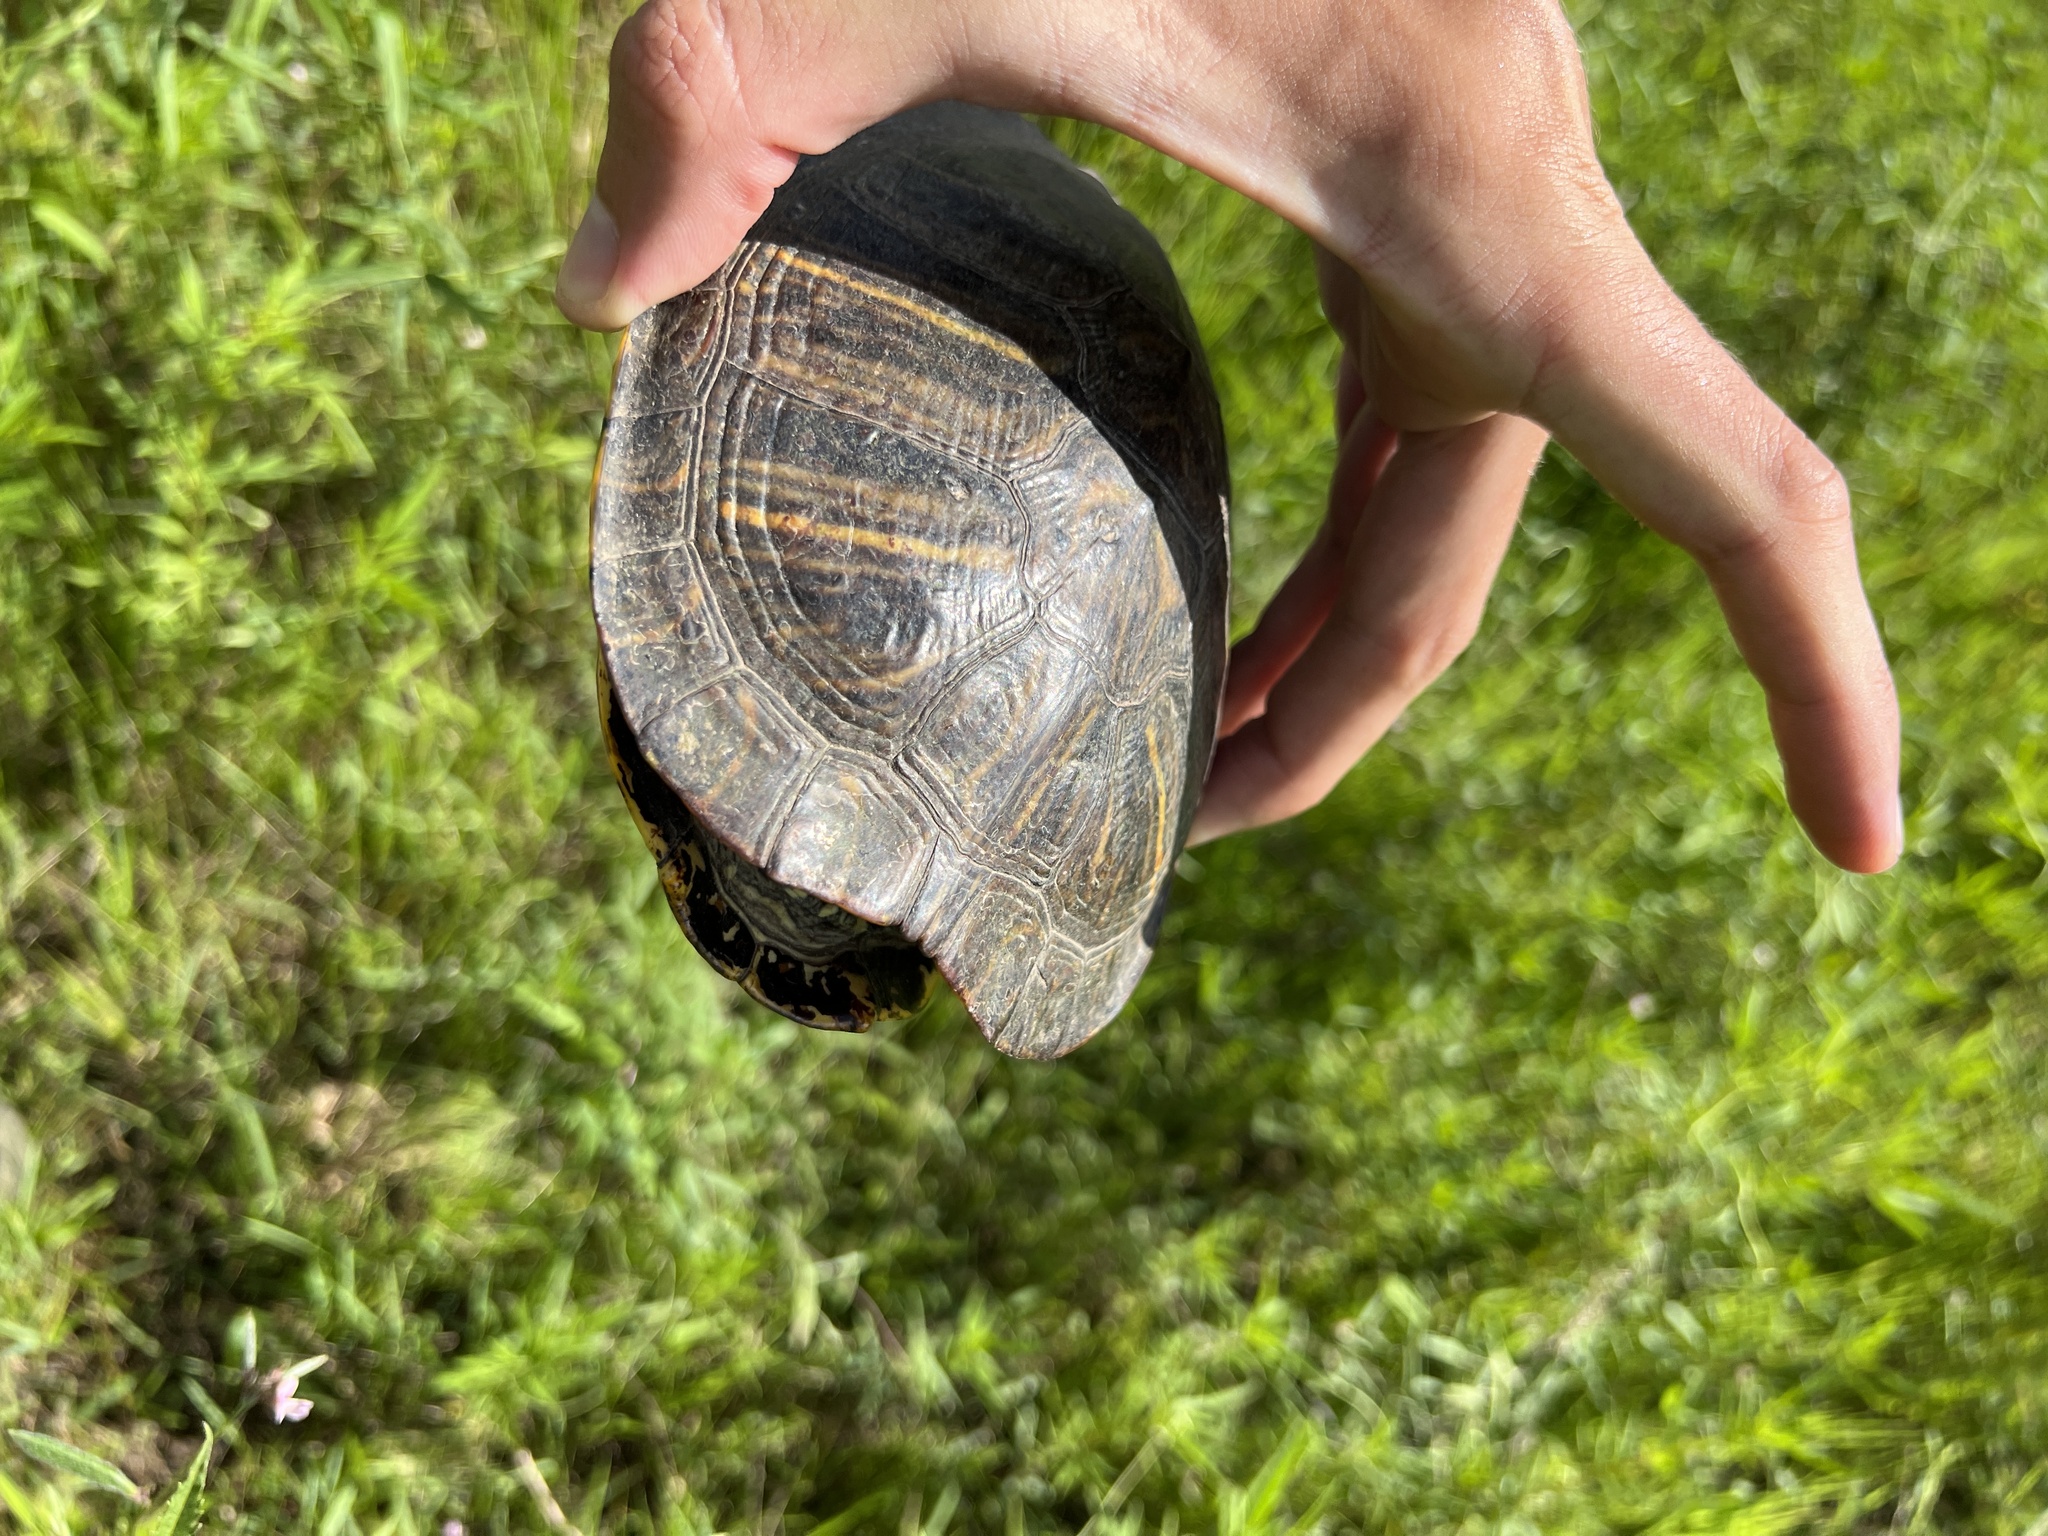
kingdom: Animalia
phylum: Chordata
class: Testudines
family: Emydidae
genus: Trachemys
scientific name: Trachemys scripta
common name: Slider
